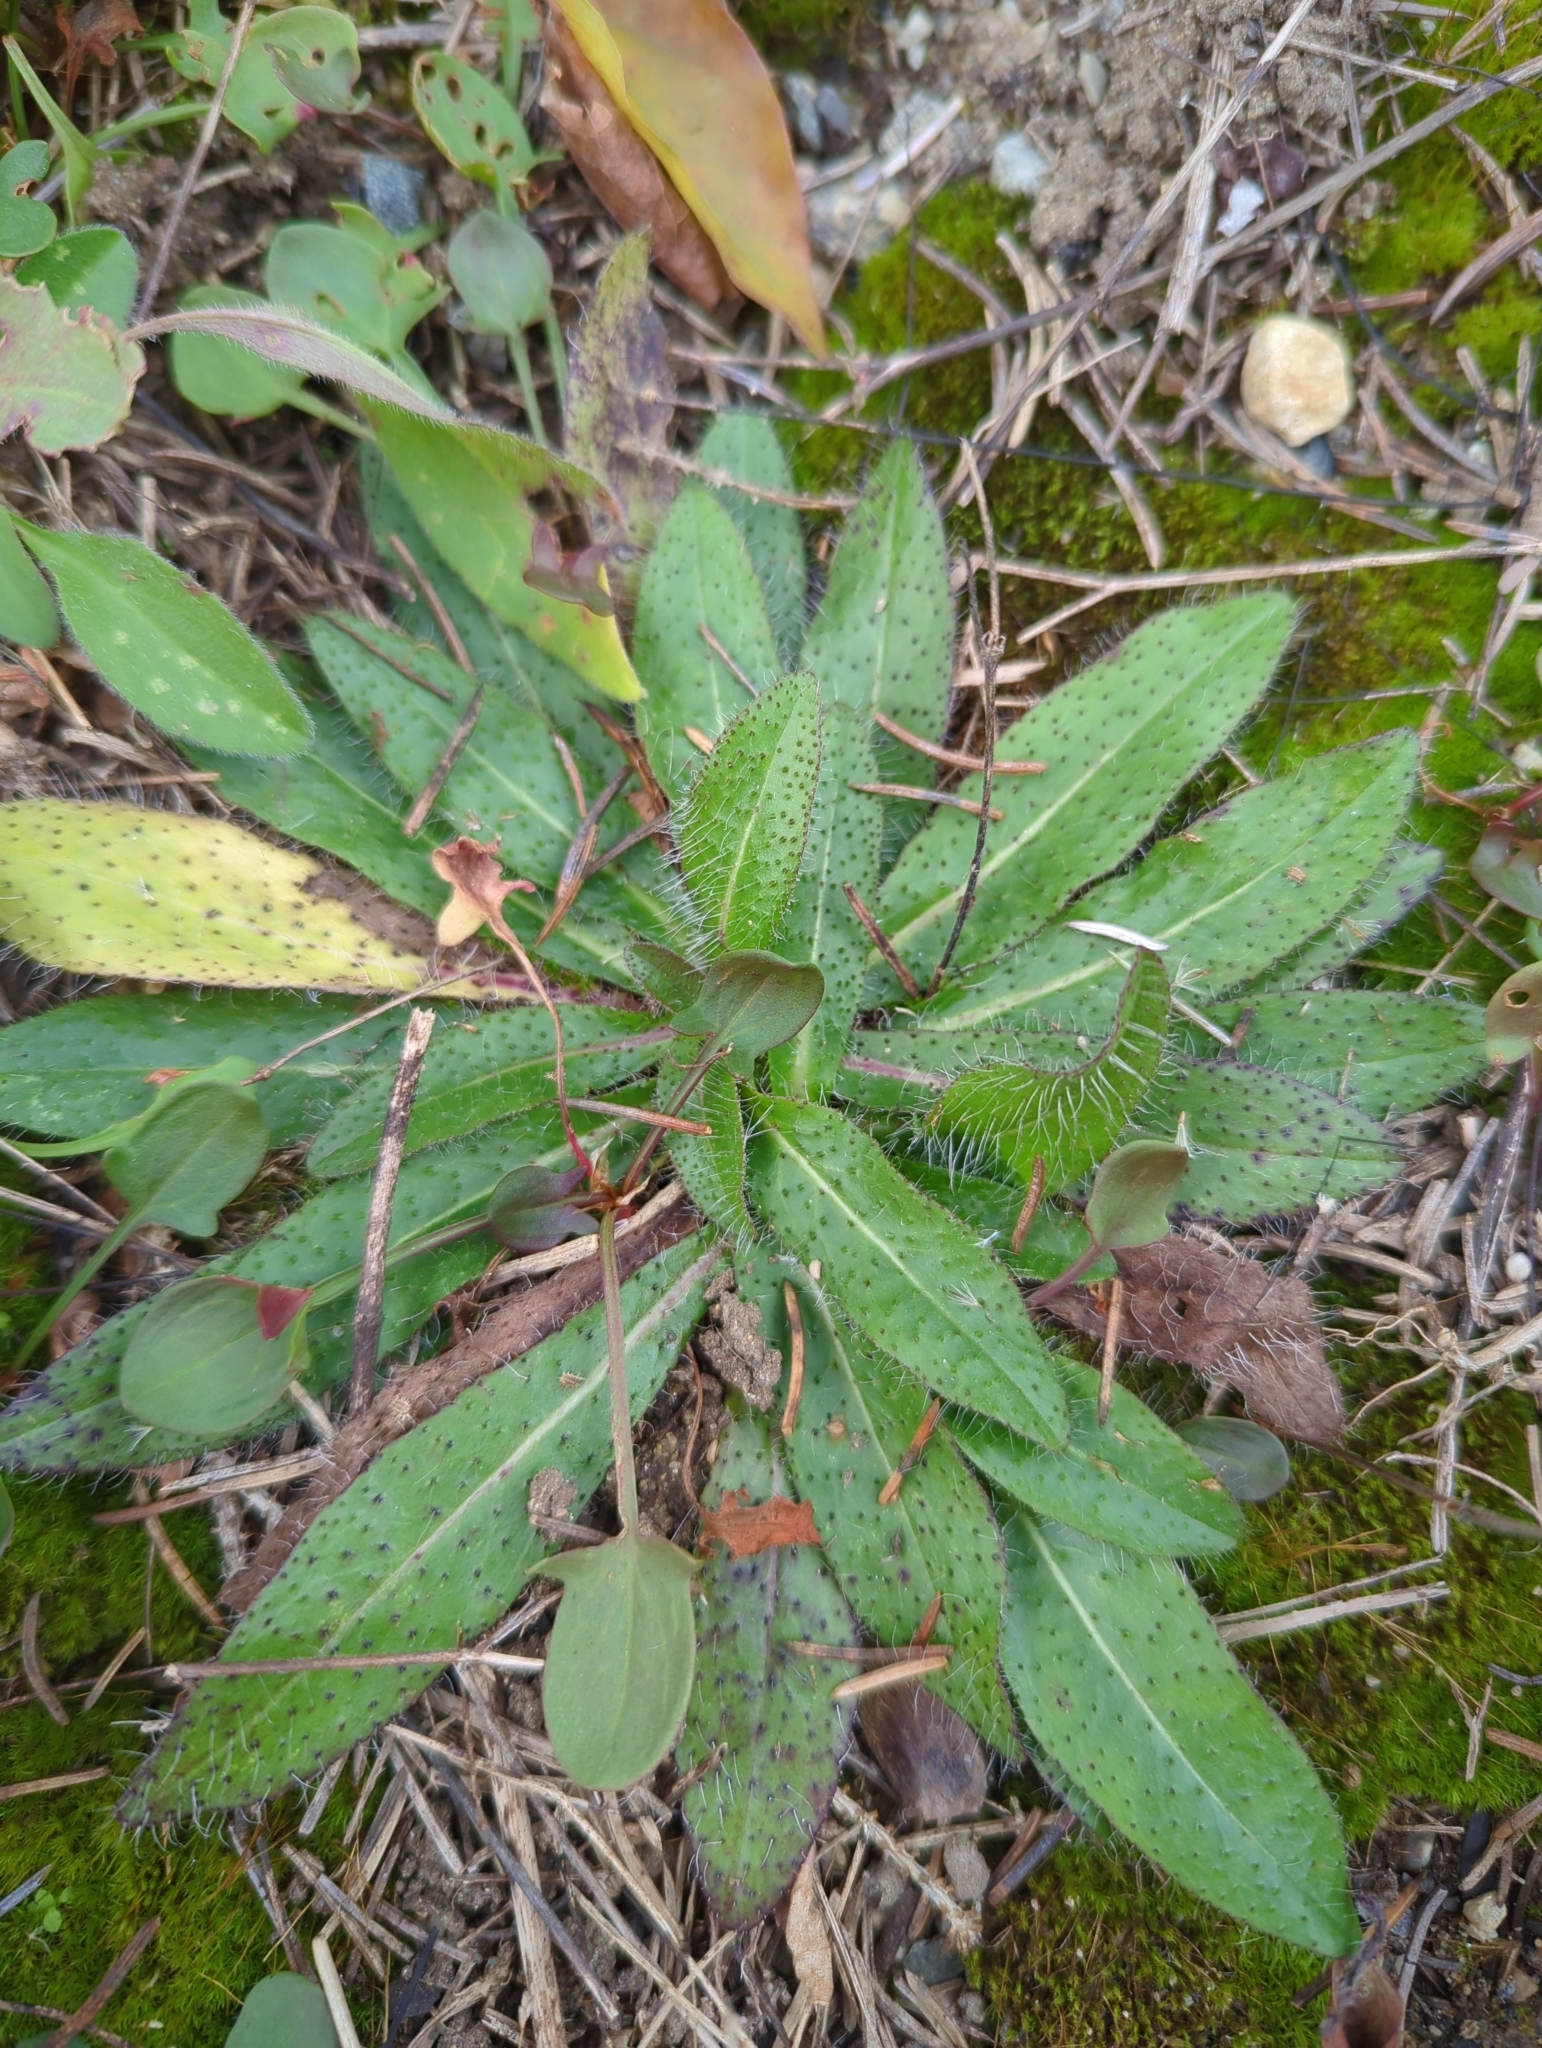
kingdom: Plantae
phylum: Tracheophyta
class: Magnoliopsida
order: Asterales
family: Asteraceae
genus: Pilosella
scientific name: Pilosella officinarum
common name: Mouse-ear hawkweed
